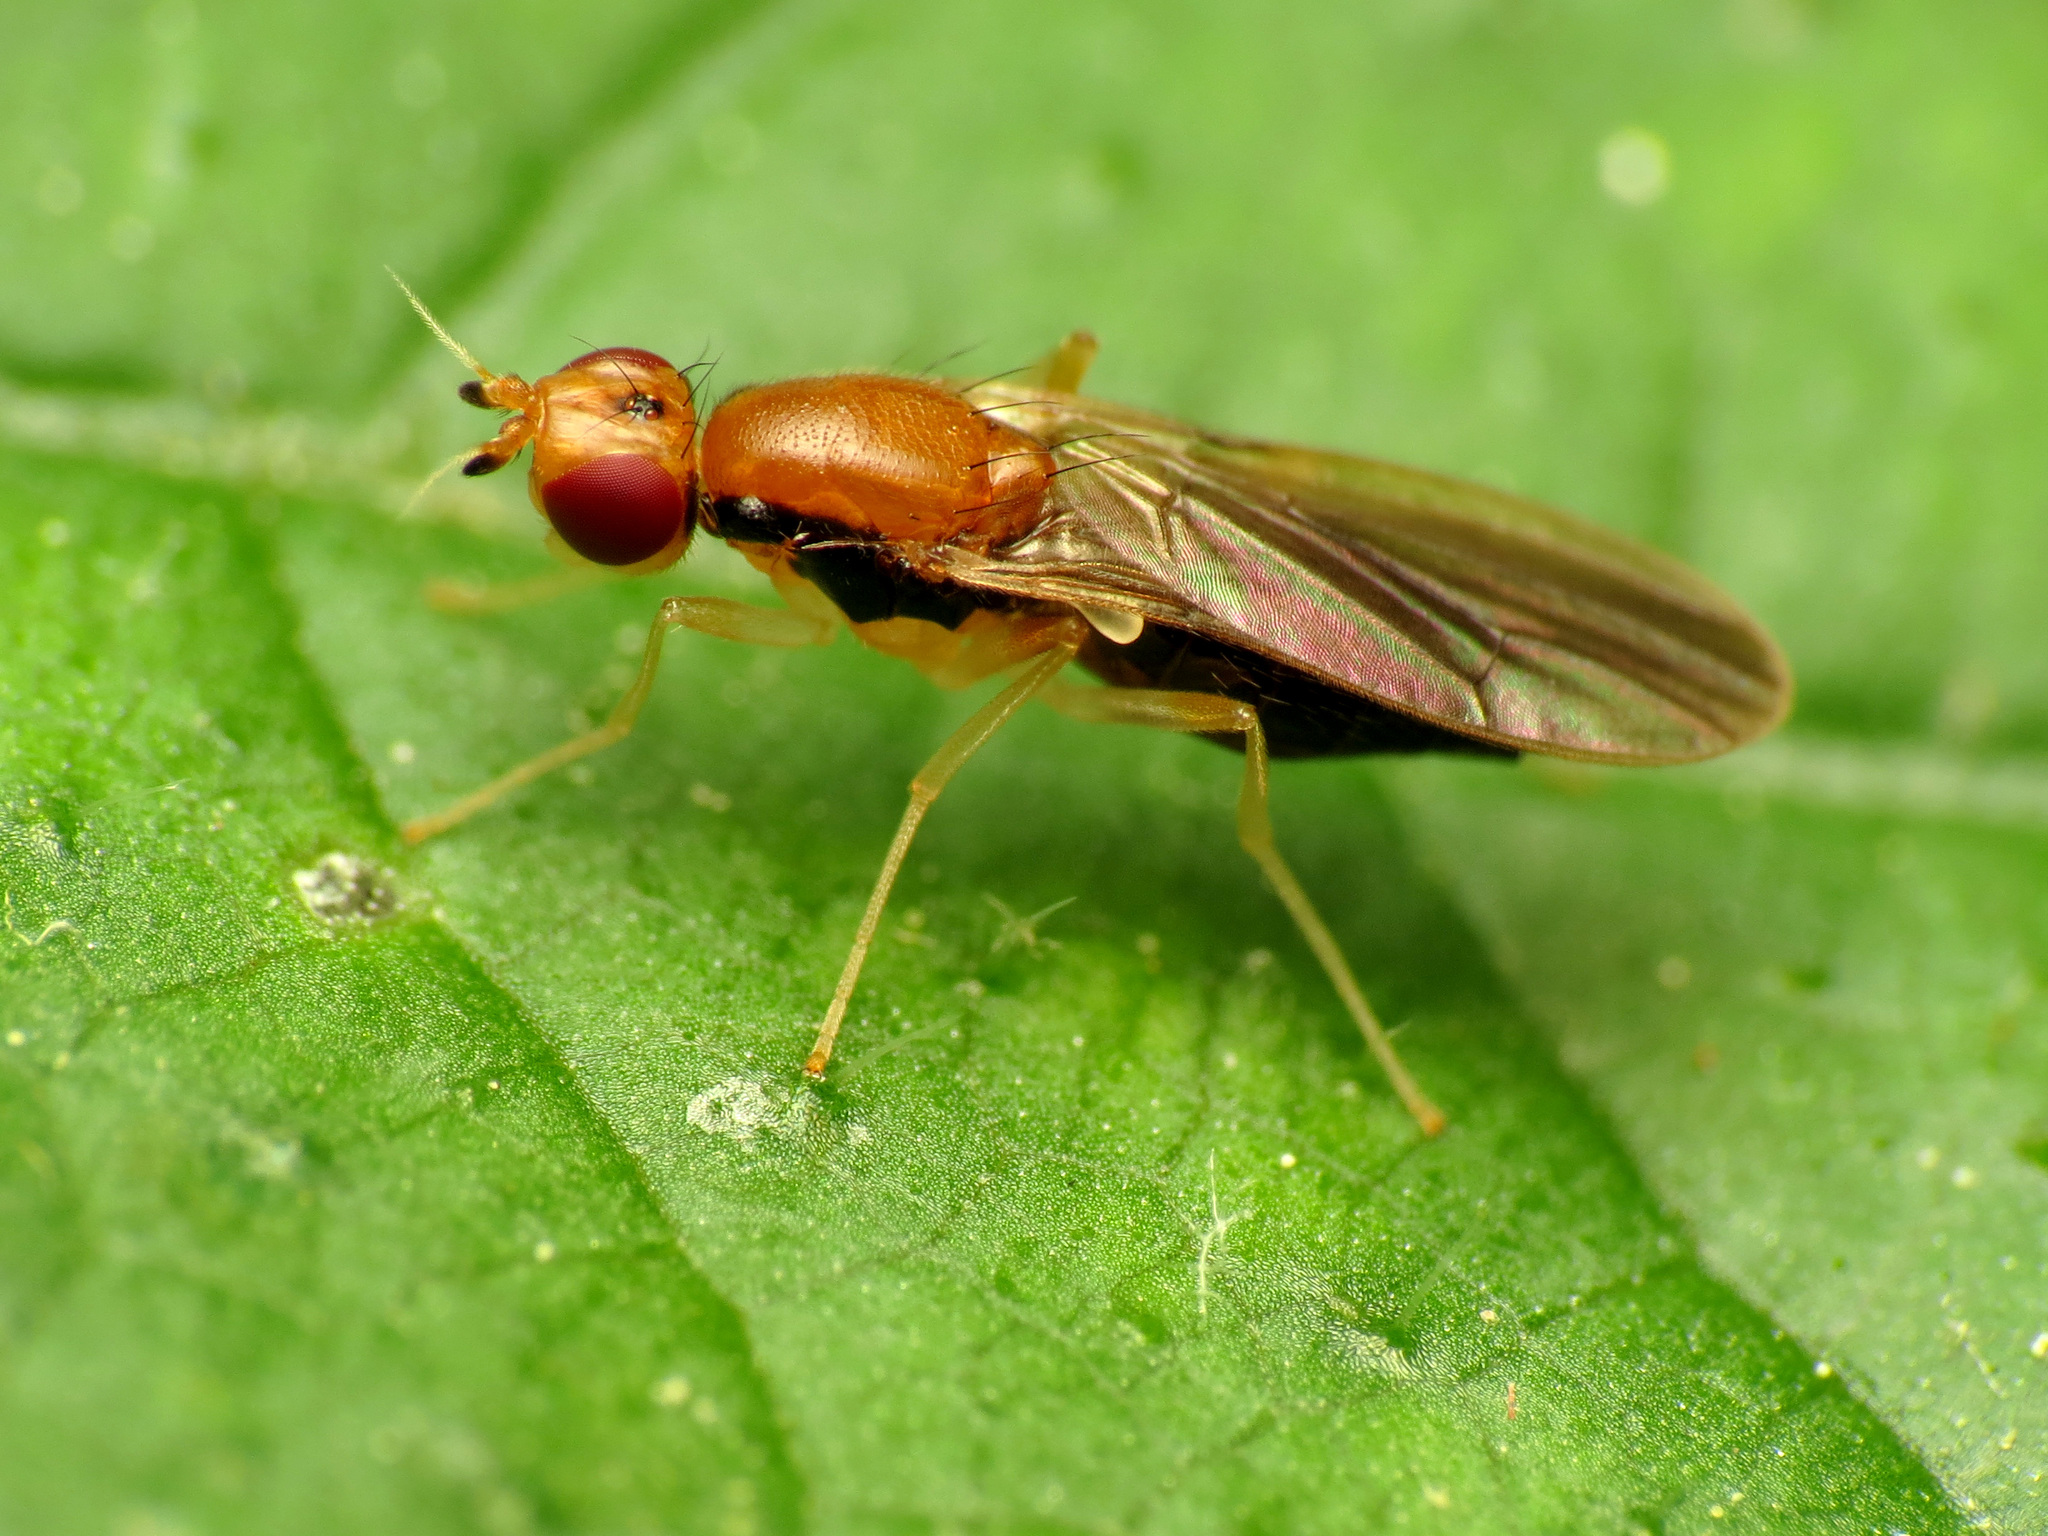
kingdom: Animalia
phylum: Arthropoda
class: Insecta
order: Diptera
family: Psilidae
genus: Psila
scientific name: Psila lateralis
